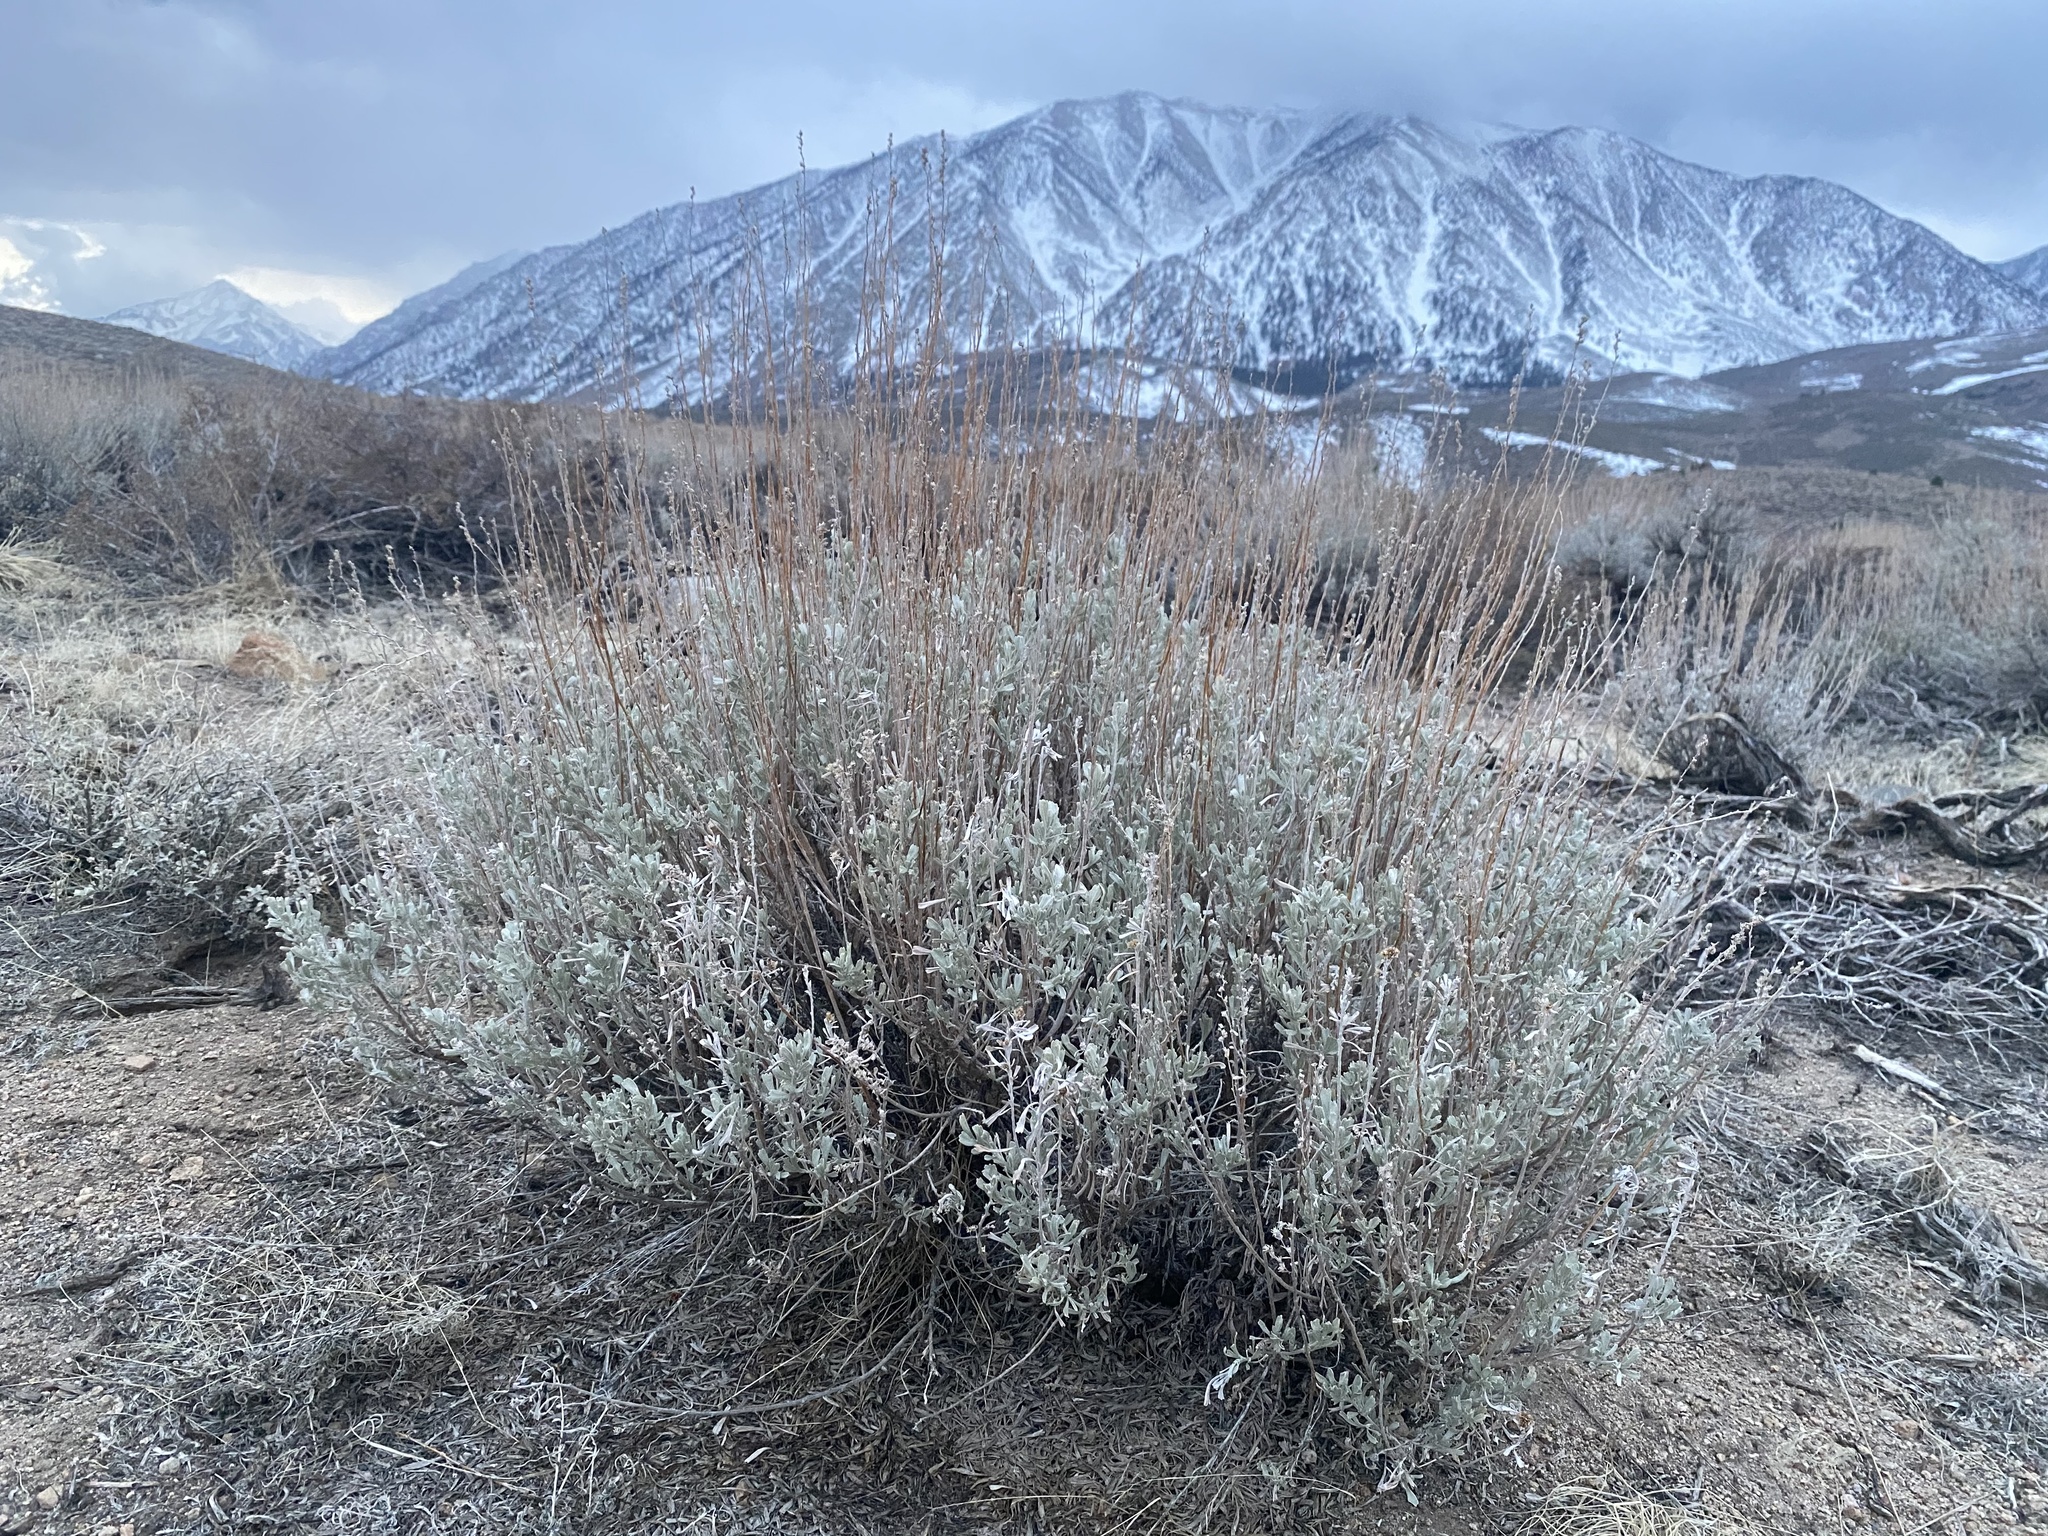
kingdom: Plantae
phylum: Tracheophyta
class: Magnoliopsida
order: Asterales
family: Asteraceae
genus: Artemisia
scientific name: Artemisia tridentata
